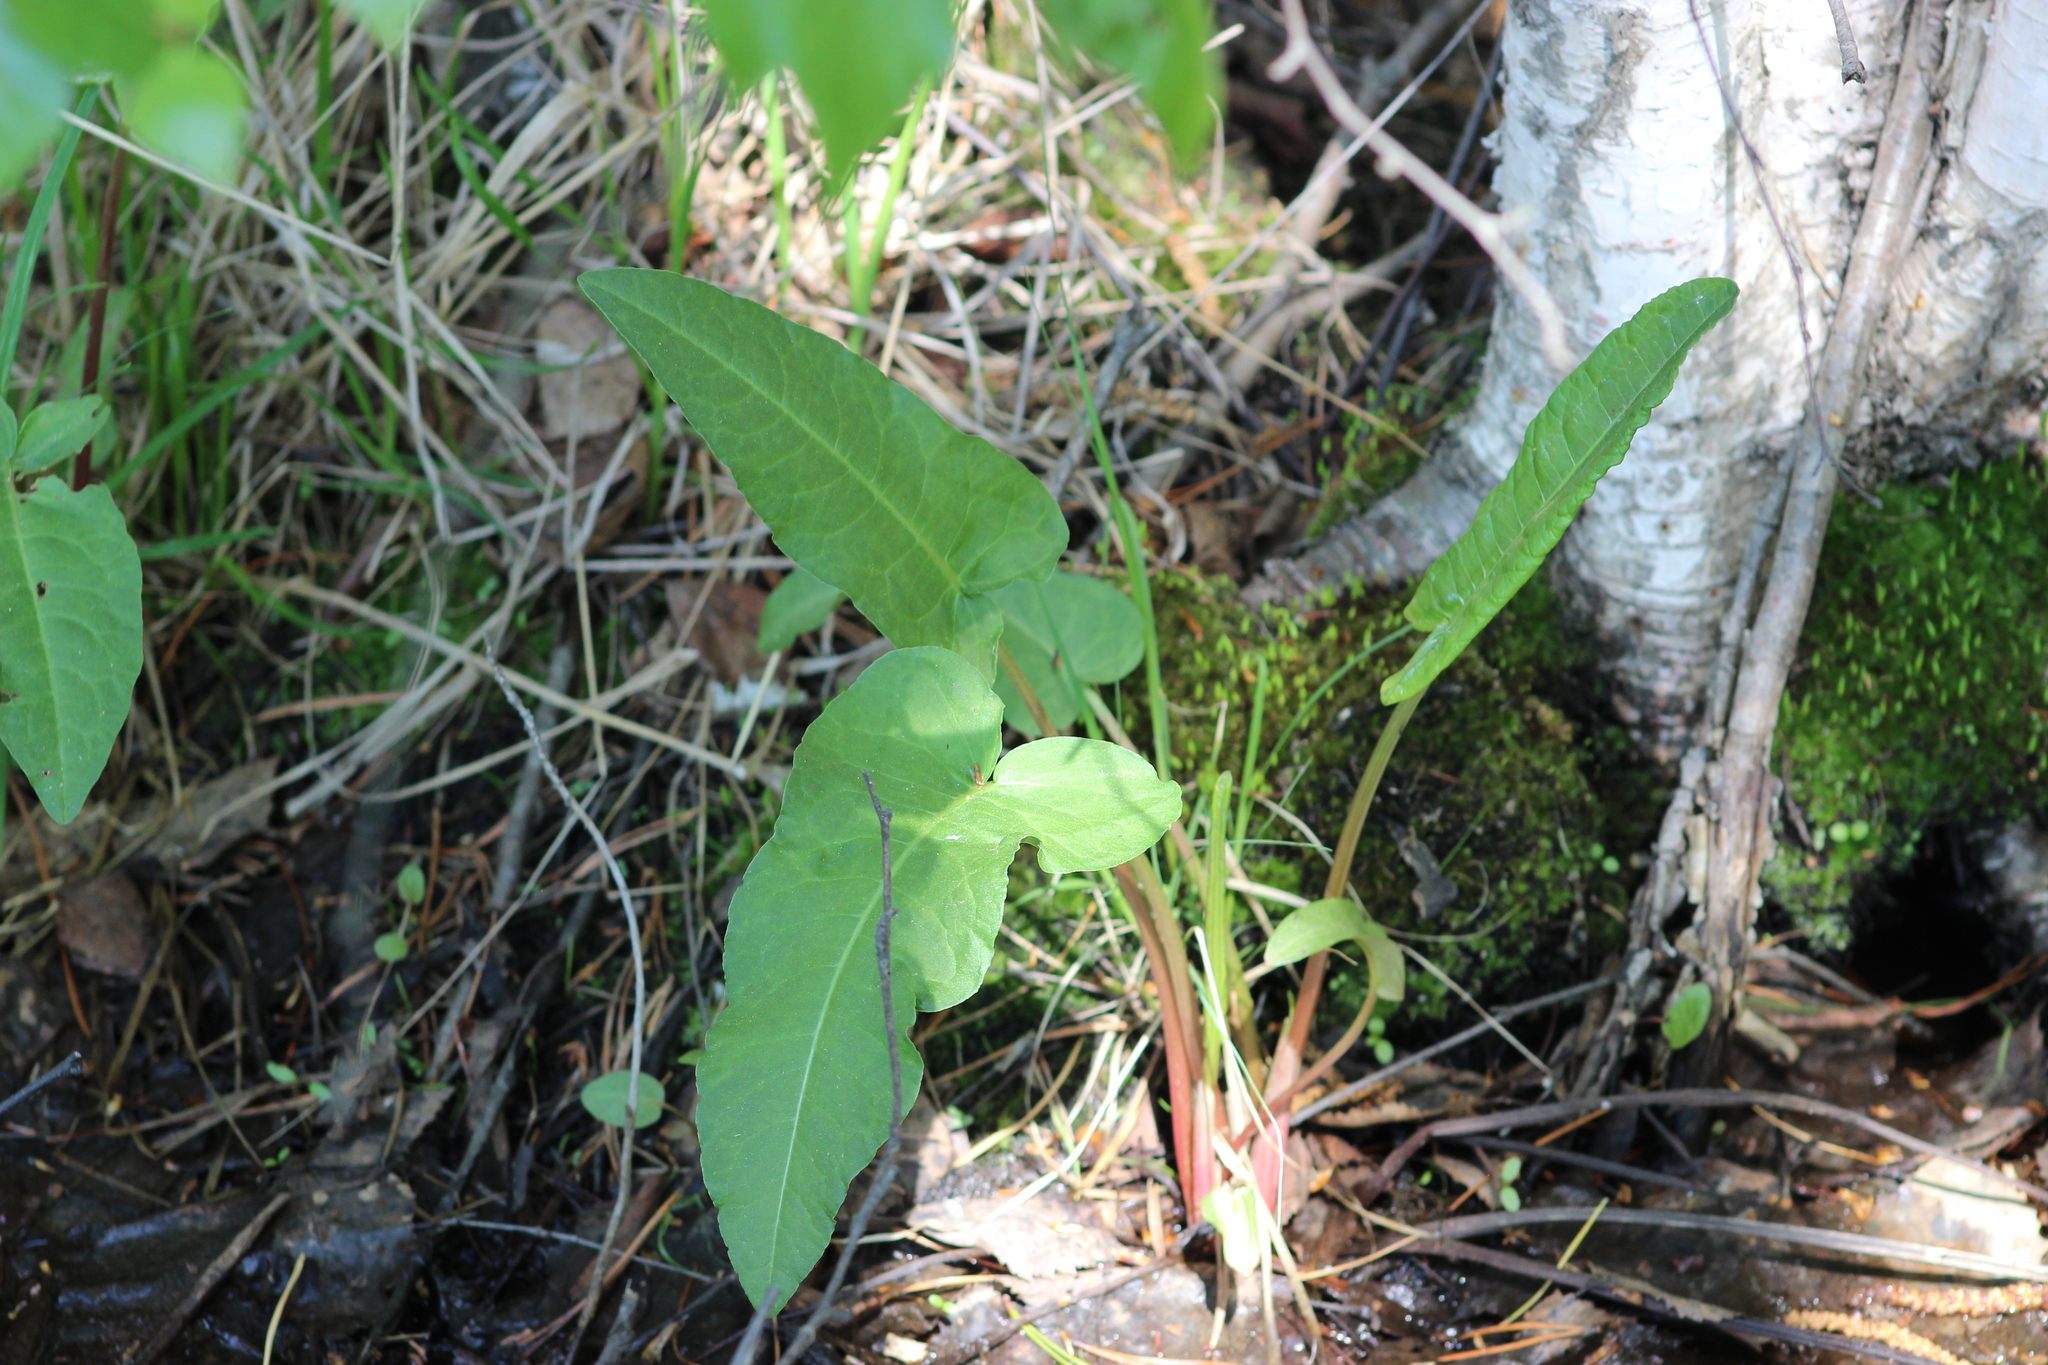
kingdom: Plantae
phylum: Tracheophyta
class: Magnoliopsida
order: Caryophyllales
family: Polygonaceae
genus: Rumex
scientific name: Rumex aquaticus
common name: Scottish dock
